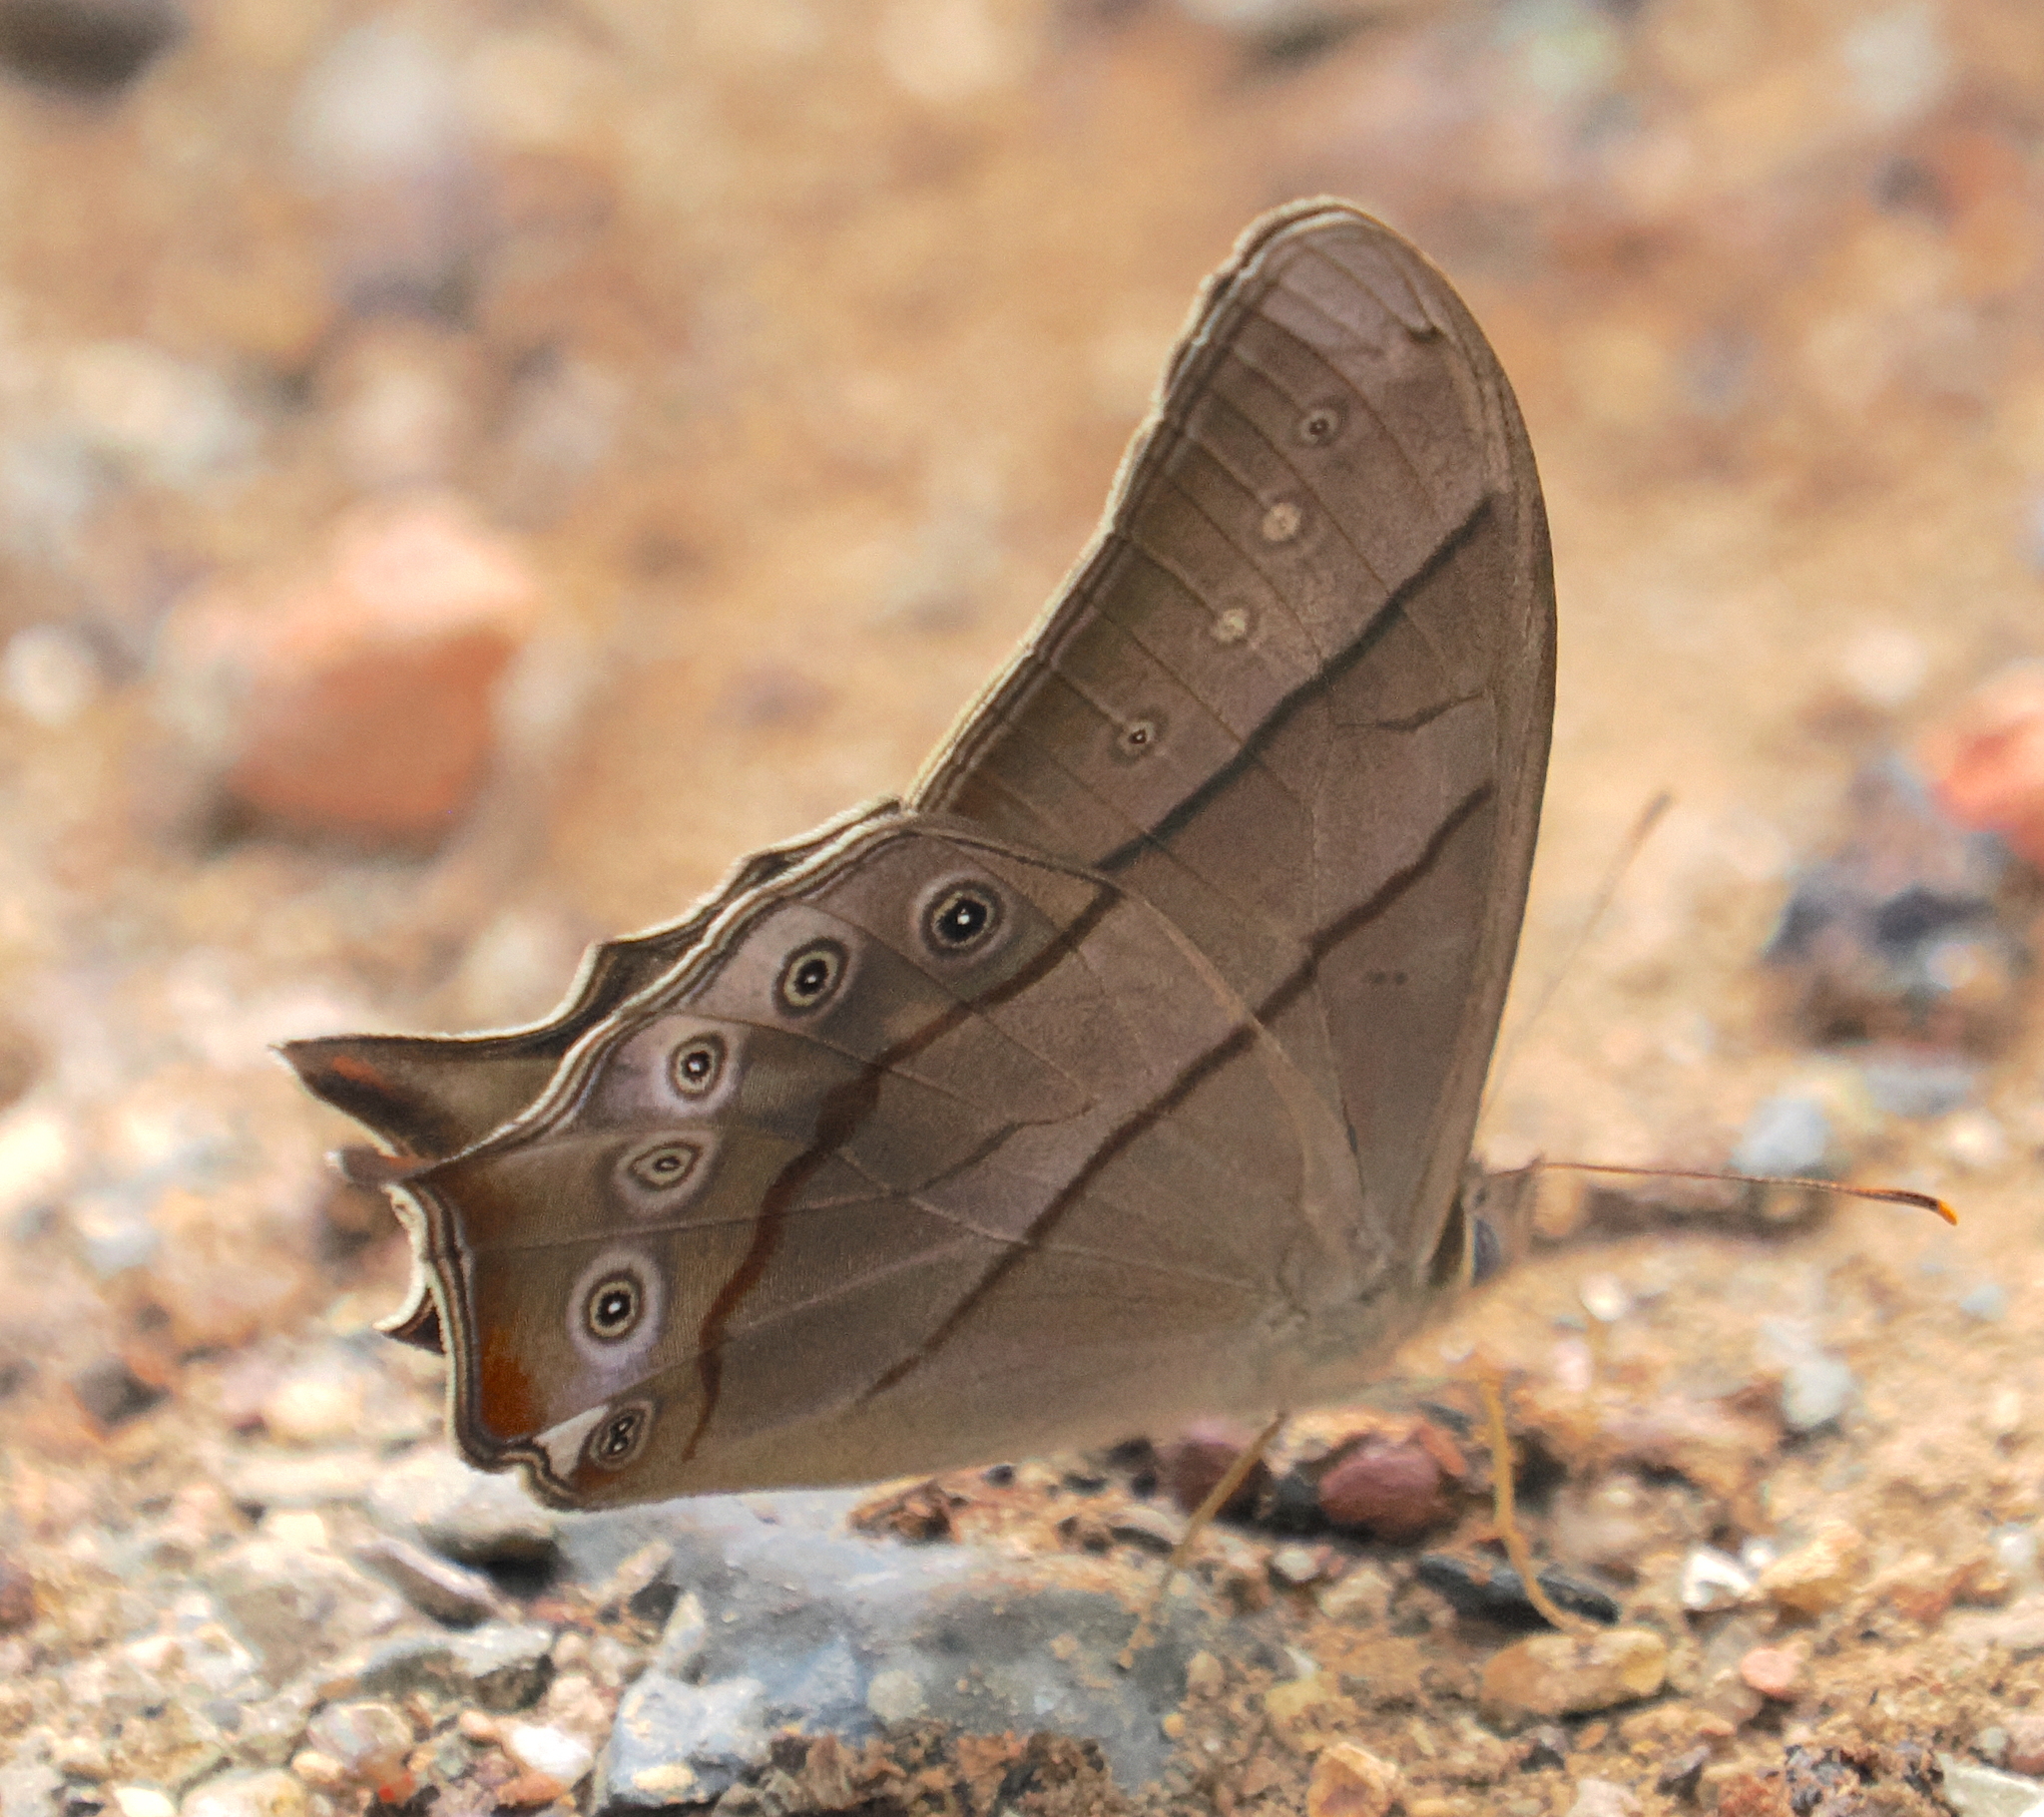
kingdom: Animalia
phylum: Arthropoda
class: Insecta
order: Lepidoptera
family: Nymphalidae
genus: Lethe
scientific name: Lethe kansa
